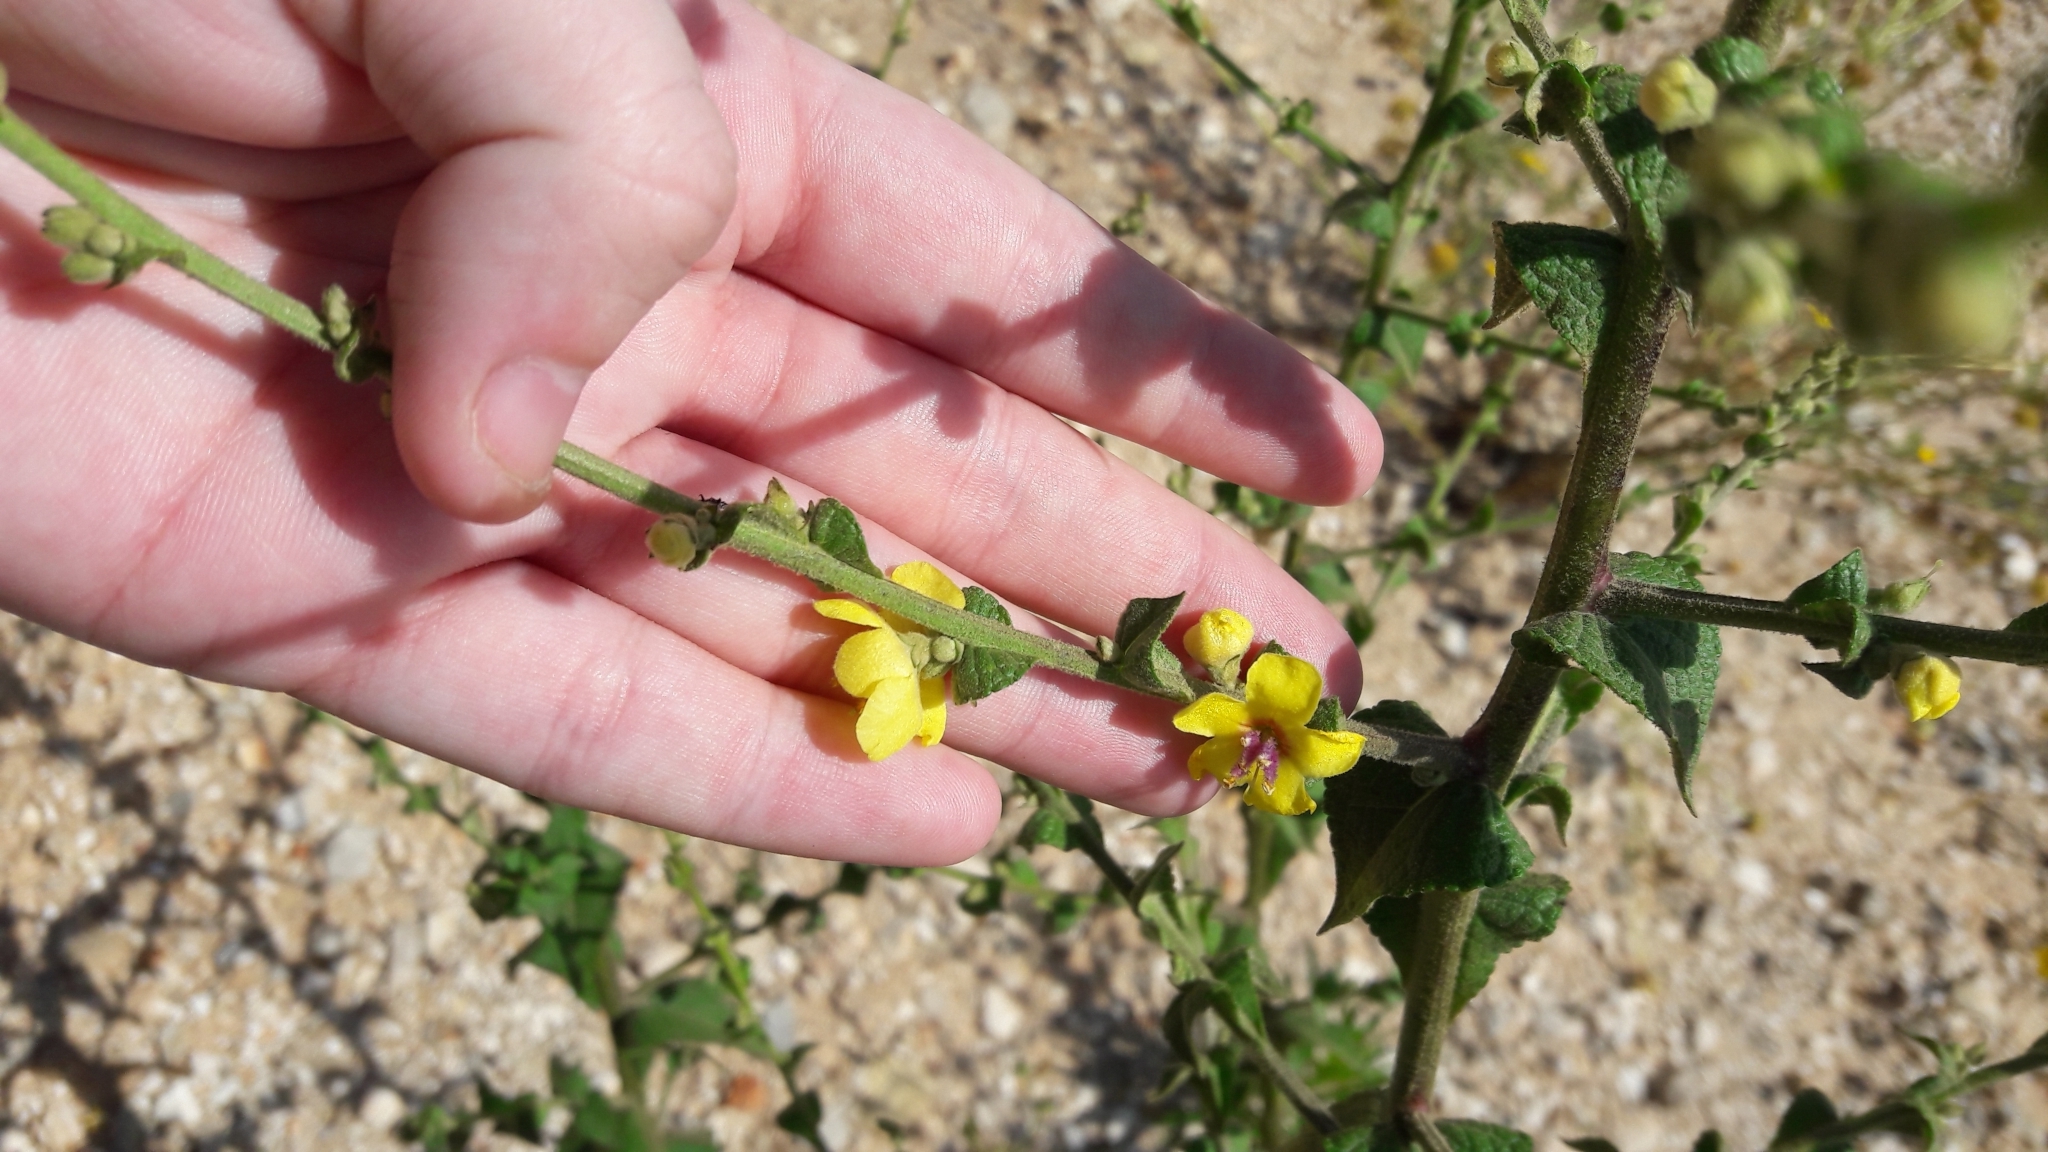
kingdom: Plantae
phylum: Tracheophyta
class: Magnoliopsida
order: Lamiales
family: Scrophulariaceae
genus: Verbascum
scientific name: Verbascum sinuatum
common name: Wavyleaf mullein
